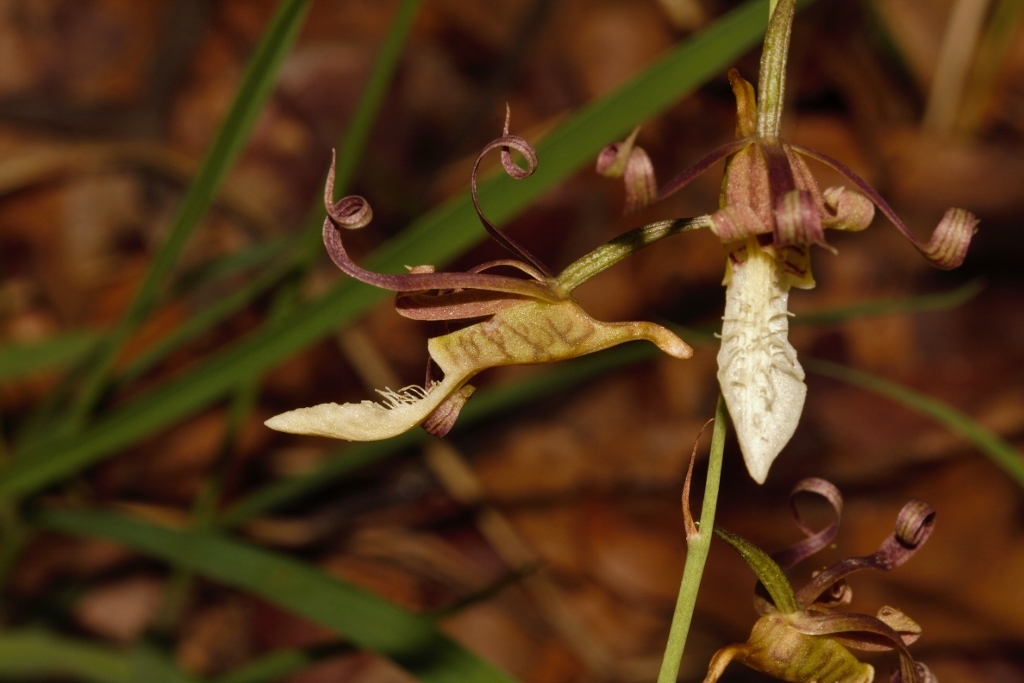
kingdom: Plantae
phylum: Tracheophyta
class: Liliopsida
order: Asparagales
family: Orchidaceae
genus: Eulophia
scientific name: Eulophia venulosa
